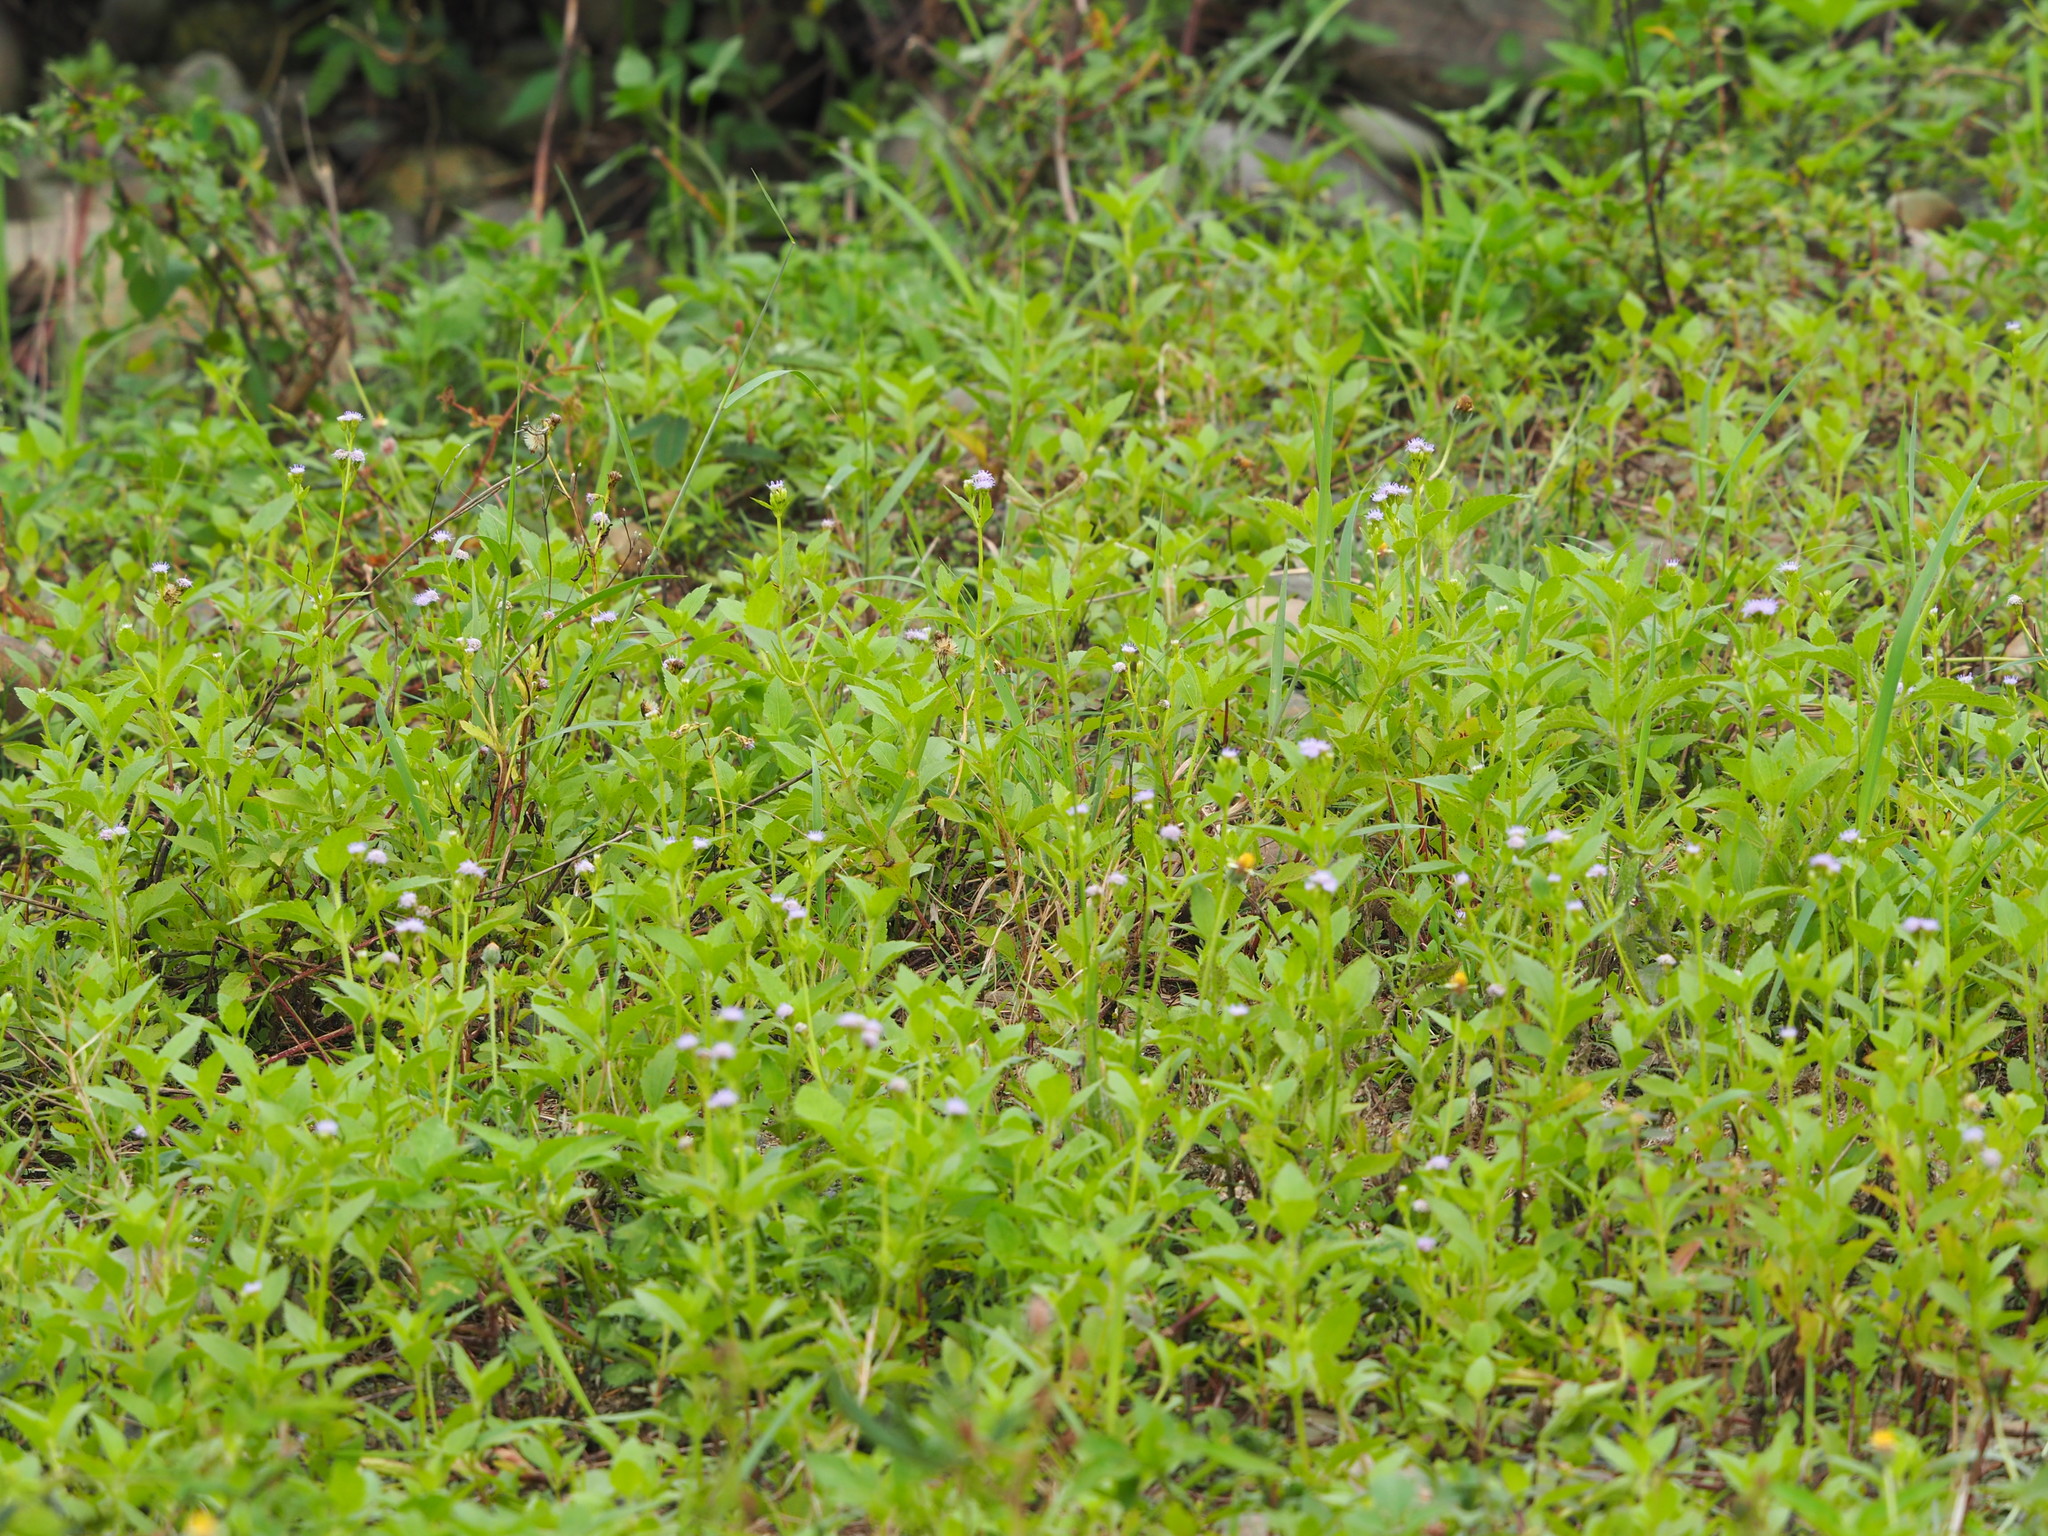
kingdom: Plantae
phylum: Tracheophyta
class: Magnoliopsida
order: Asterales
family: Asteraceae
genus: Praxelis
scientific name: Praxelis clematidea
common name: Praxelis
